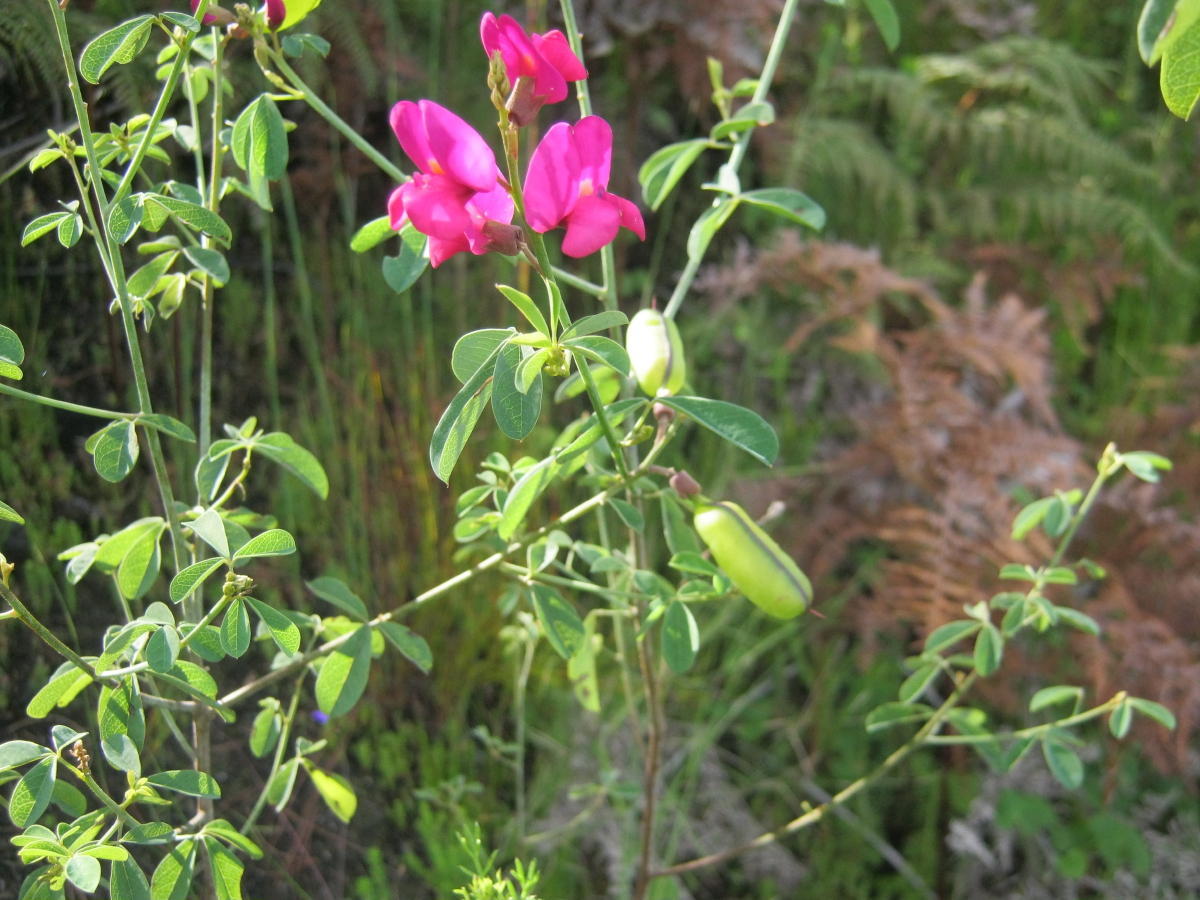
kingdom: Plantae
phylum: Tracheophyta
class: Magnoliopsida
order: Fabales
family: Fabaceae
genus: Hypocalyptus
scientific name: Hypocalyptus coluteoides
